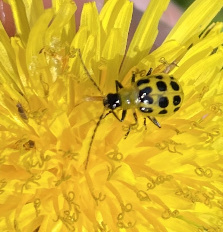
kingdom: Animalia
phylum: Arthropoda
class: Insecta
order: Coleoptera
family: Chrysomelidae
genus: Diabrotica
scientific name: Diabrotica undecimpunctata
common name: Spotted cucumber beetle
